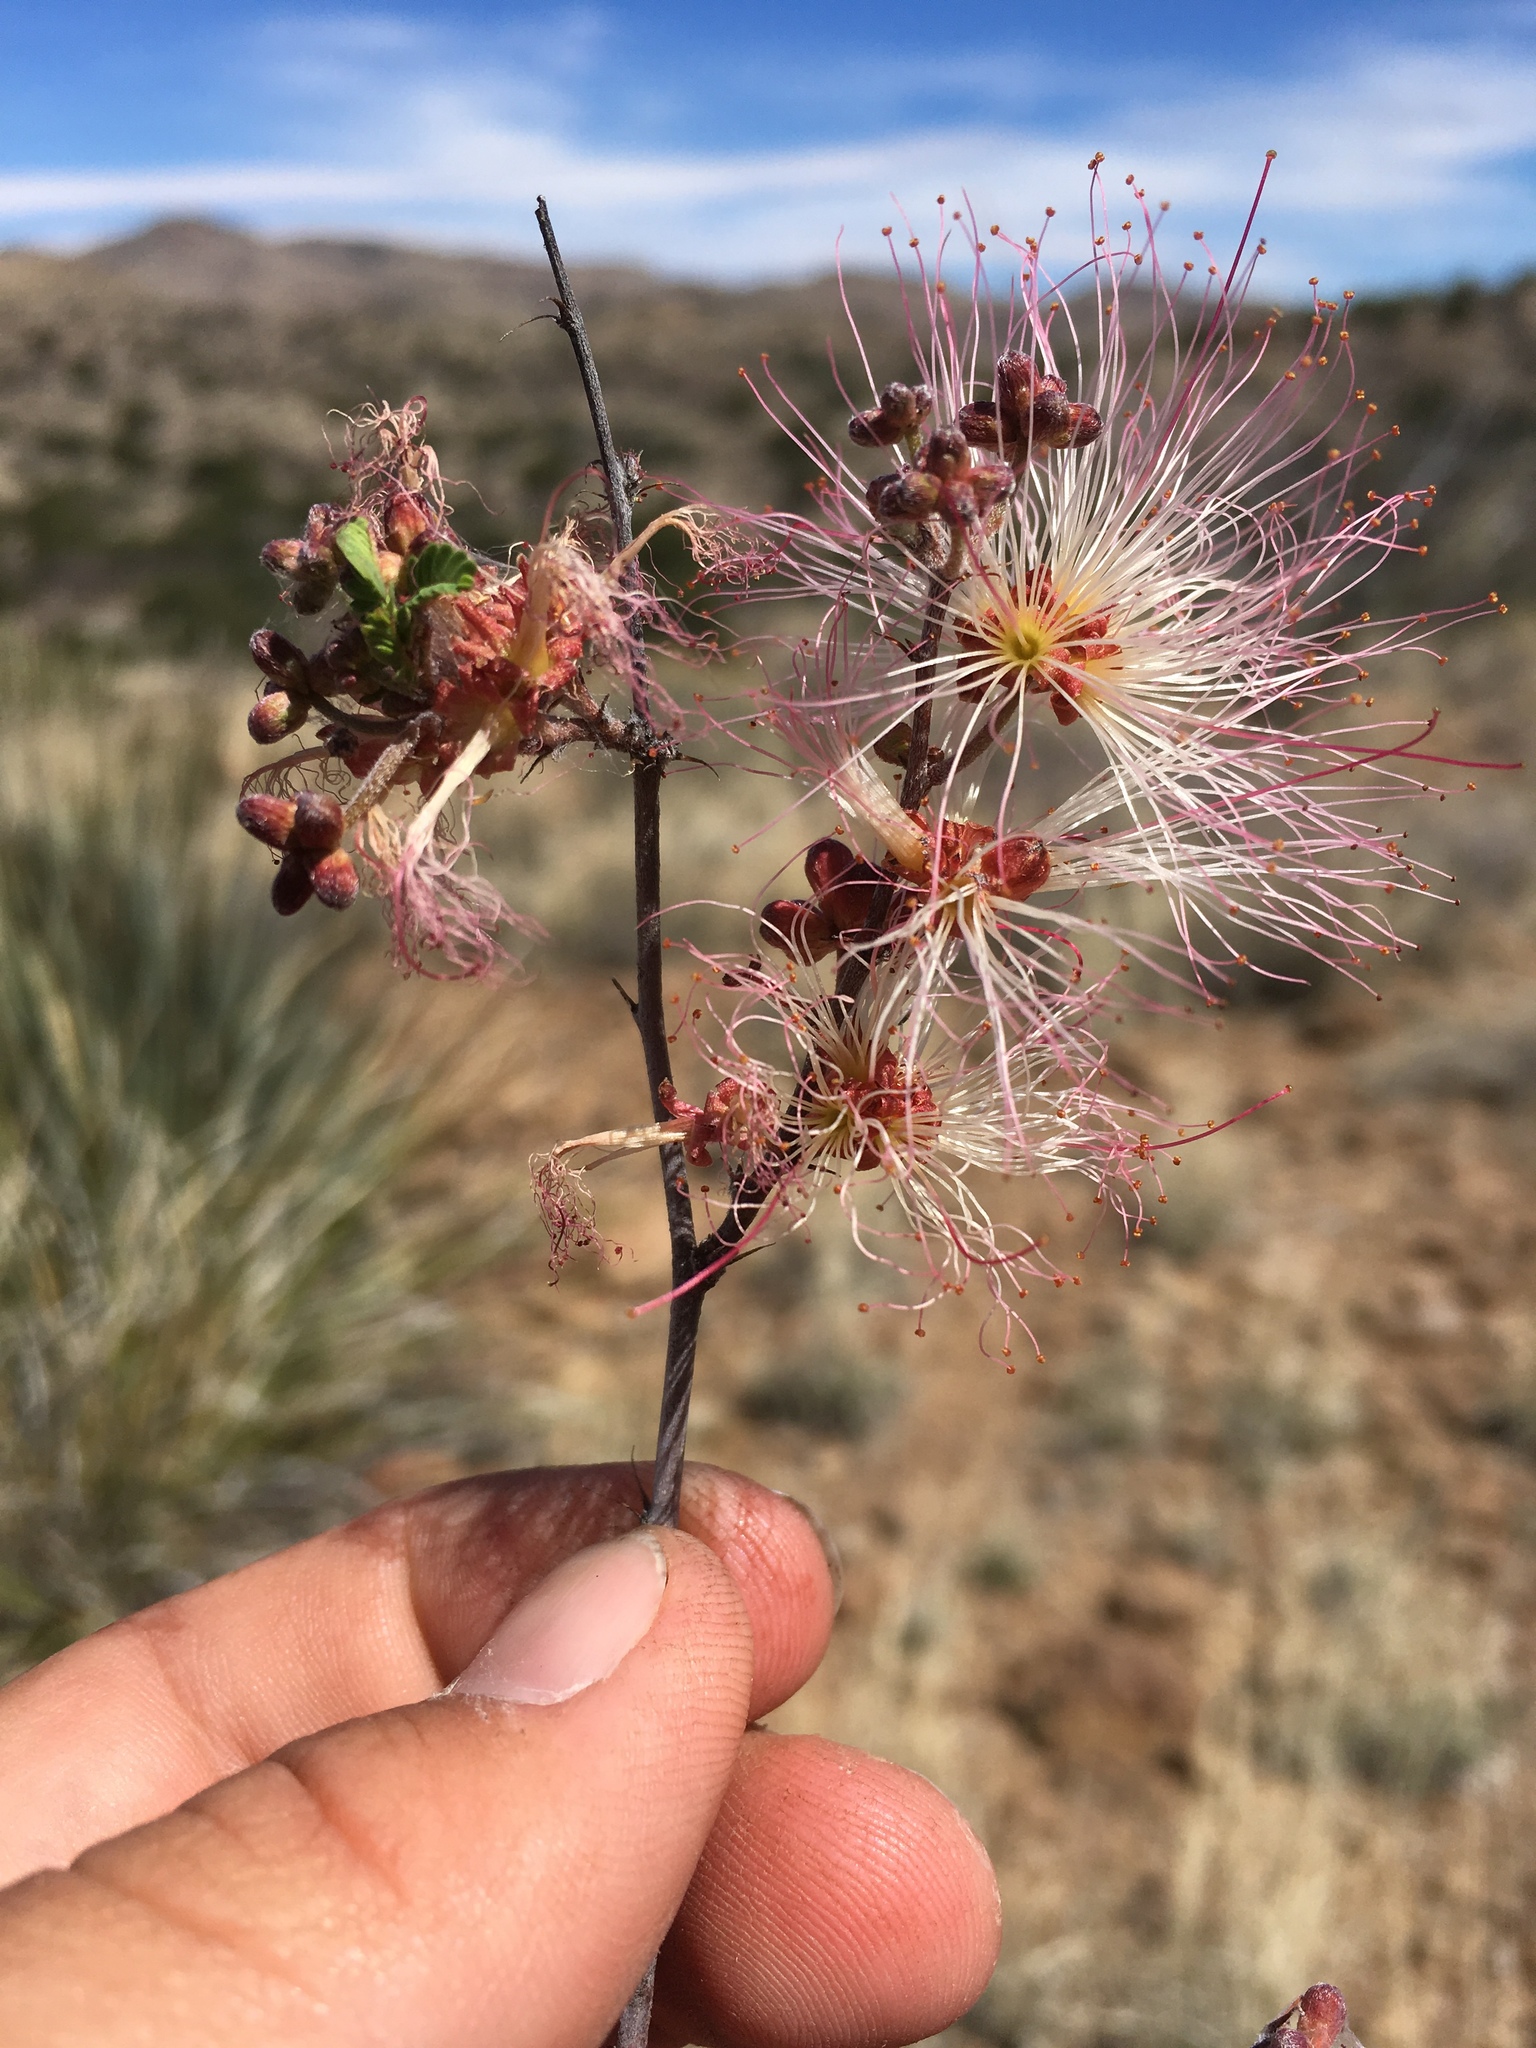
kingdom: Plantae
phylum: Tracheophyta
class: Magnoliopsida
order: Fabales
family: Fabaceae
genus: Calliandra
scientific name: Calliandra eriophylla
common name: Fairy-duster
